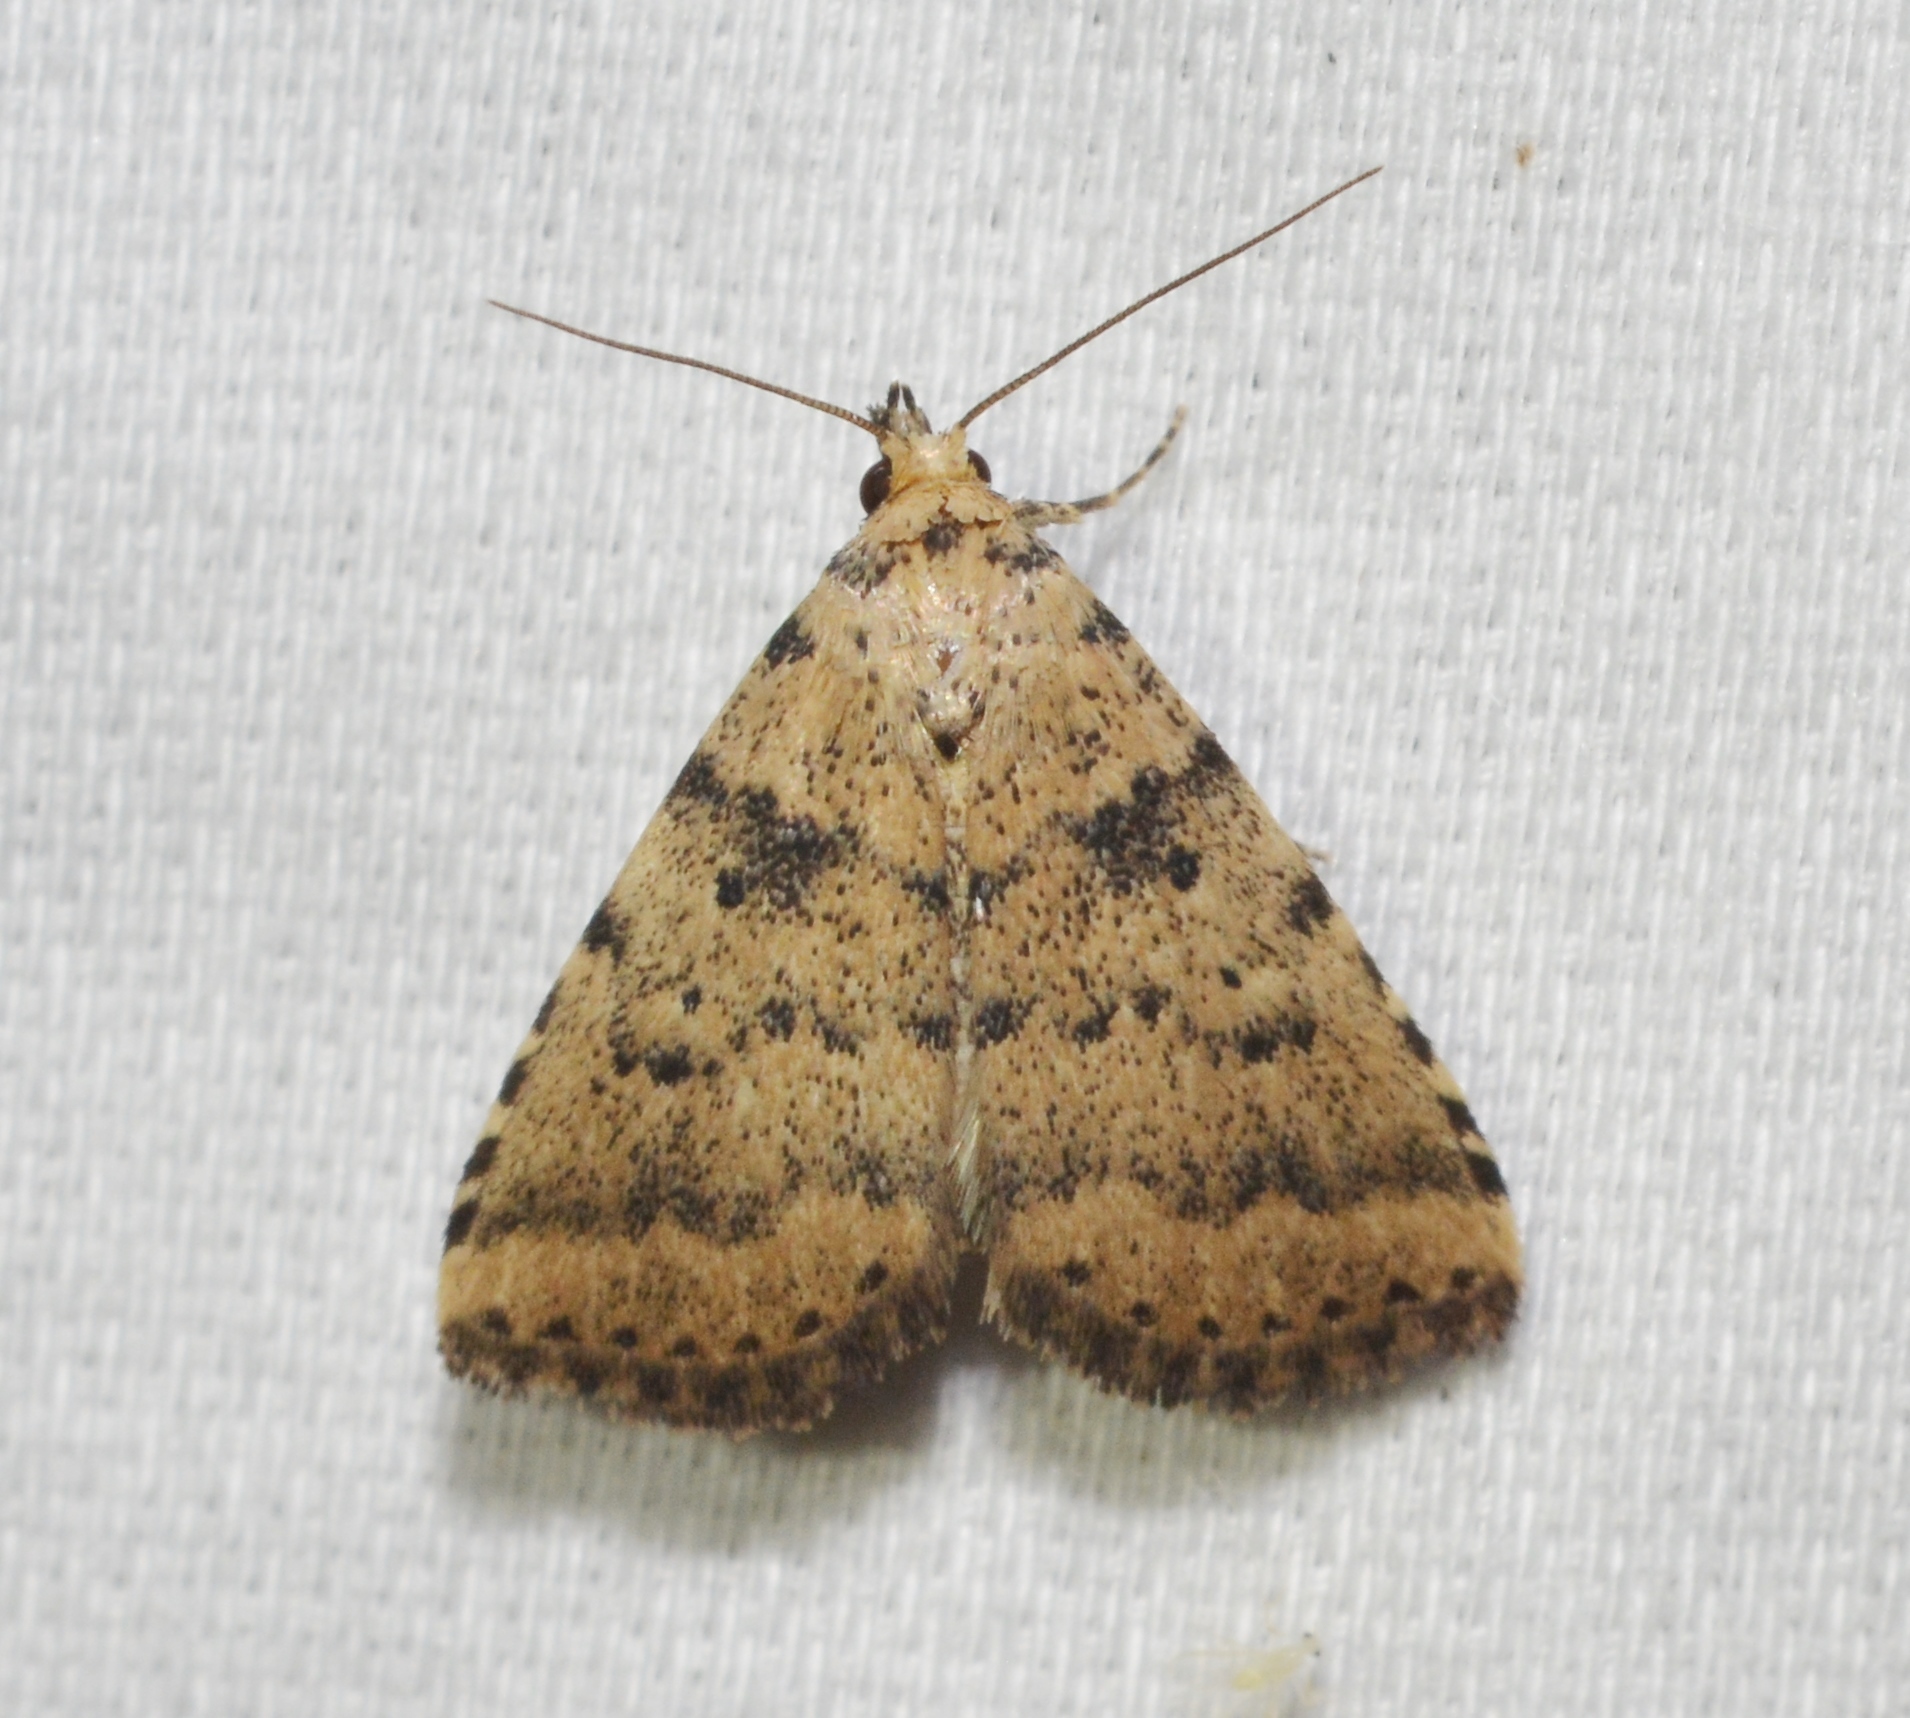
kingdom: Animalia
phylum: Arthropoda
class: Insecta
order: Lepidoptera
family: Erebidae
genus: Arugisa
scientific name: Arugisa lutea
